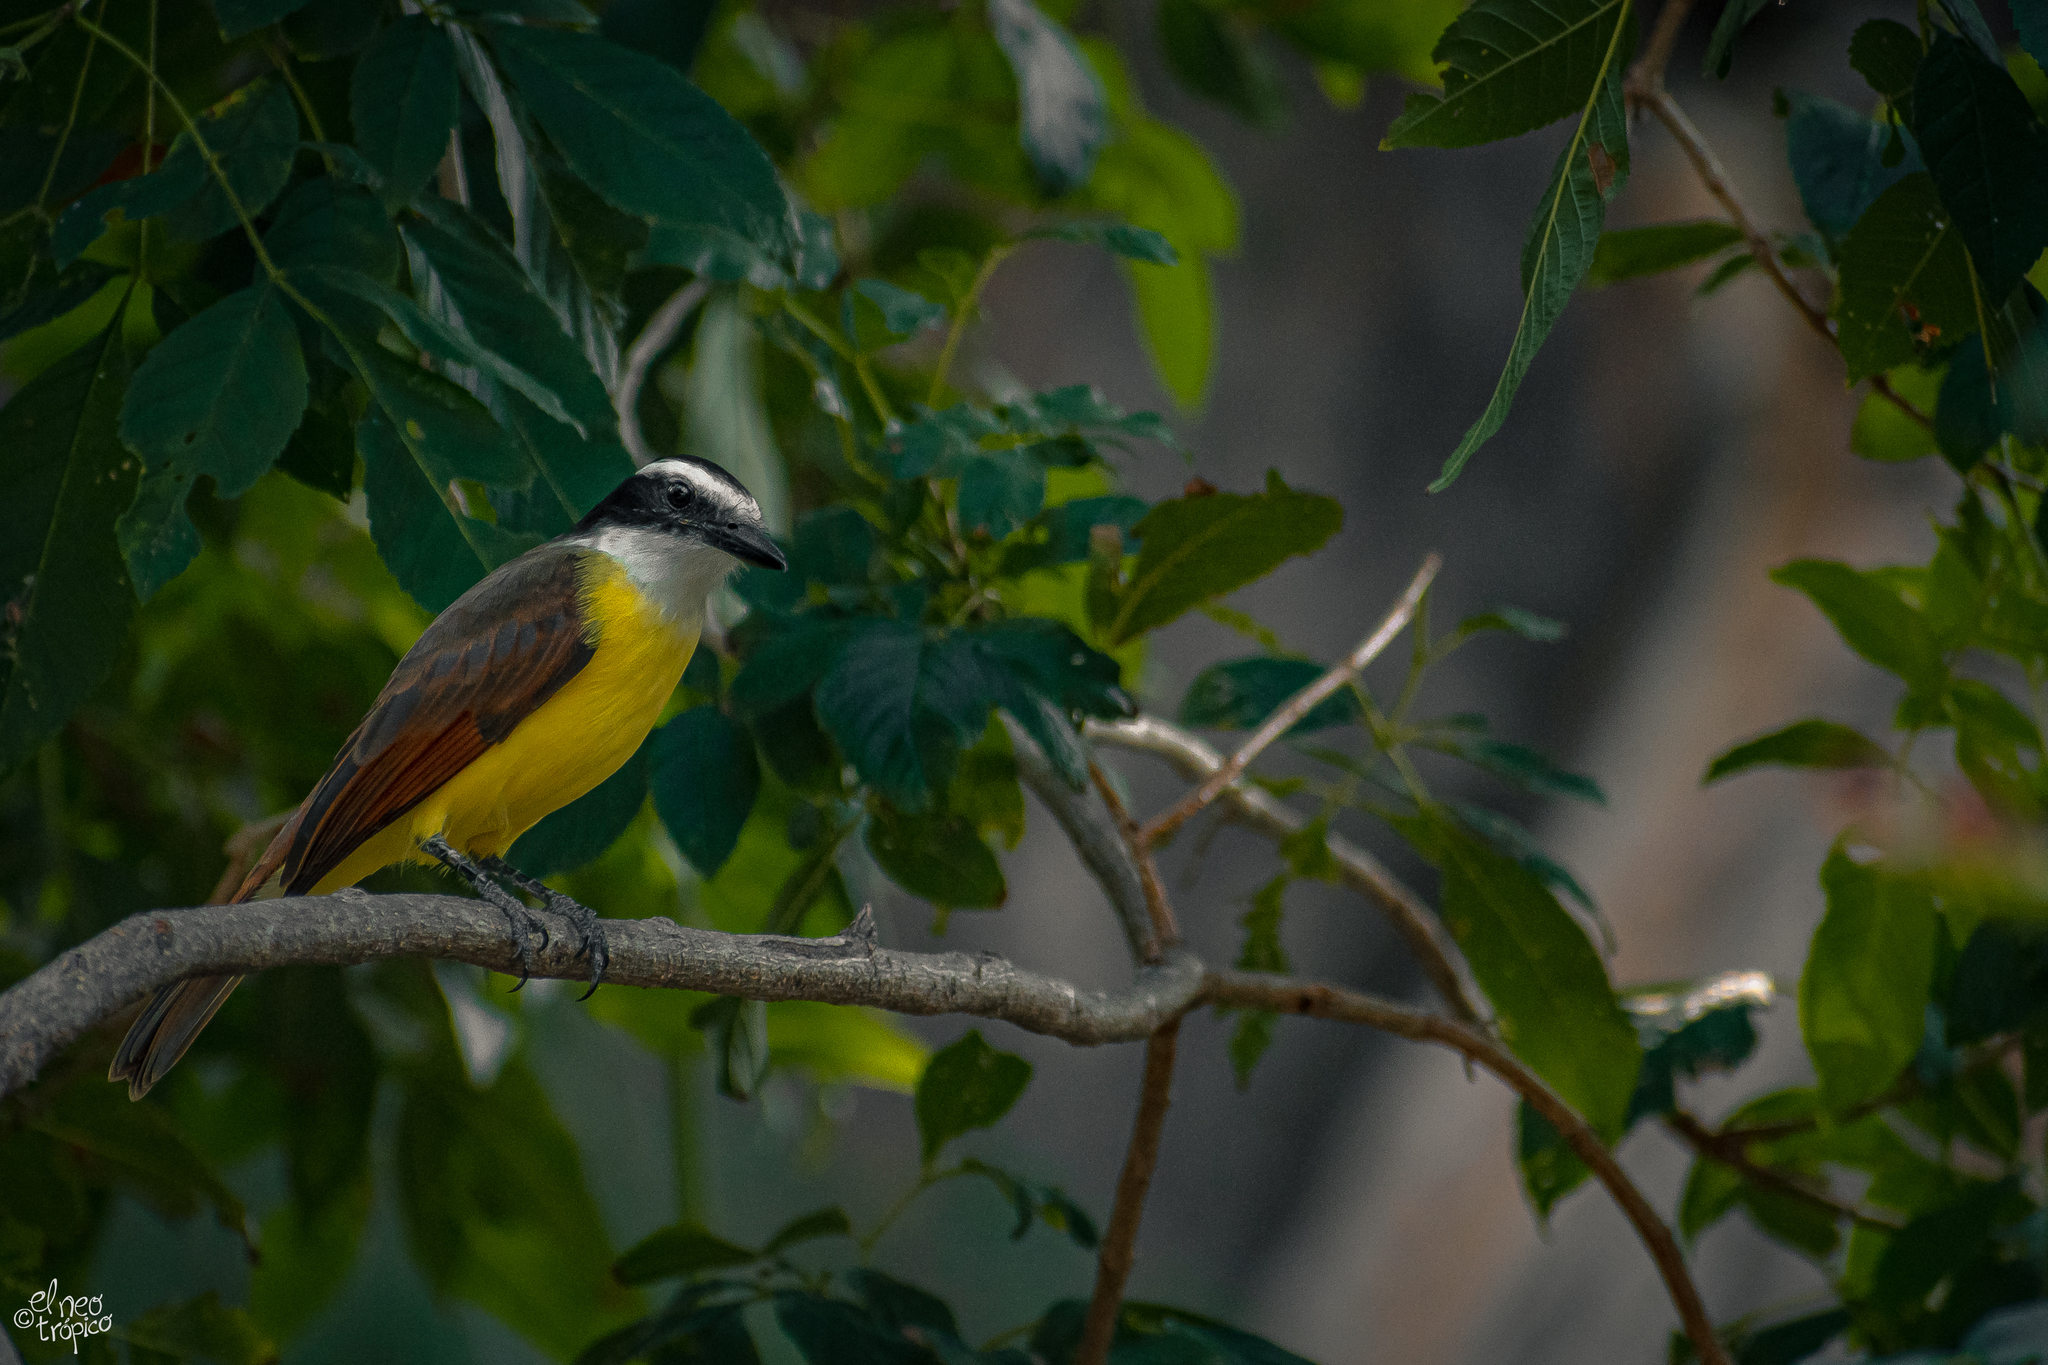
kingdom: Animalia
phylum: Chordata
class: Aves
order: Passeriformes
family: Tyrannidae
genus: Pitangus
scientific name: Pitangus sulphuratus
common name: Great kiskadee
